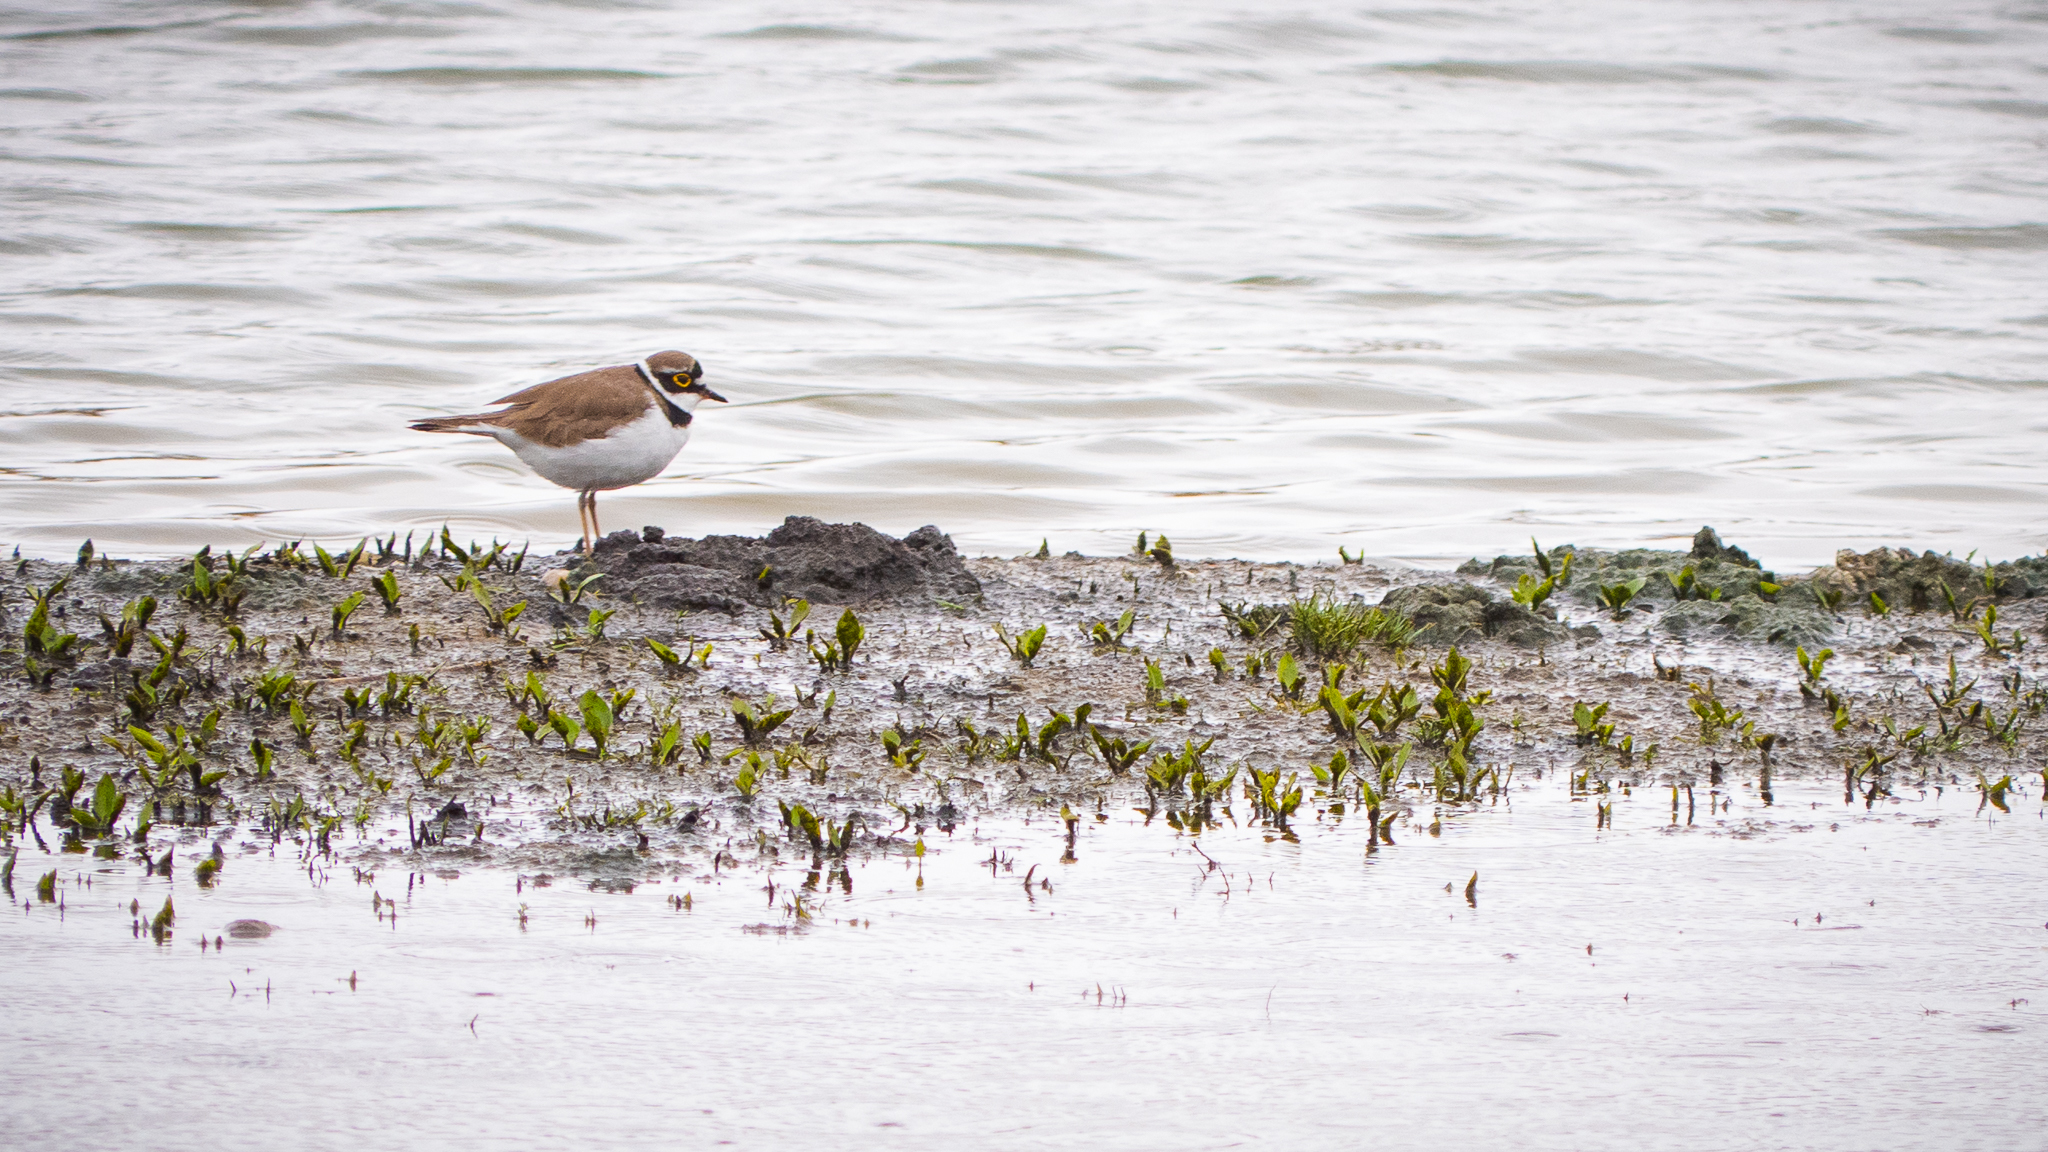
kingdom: Animalia
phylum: Chordata
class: Aves
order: Charadriiformes
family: Charadriidae
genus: Charadrius
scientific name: Charadrius dubius
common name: Little ringed plover
